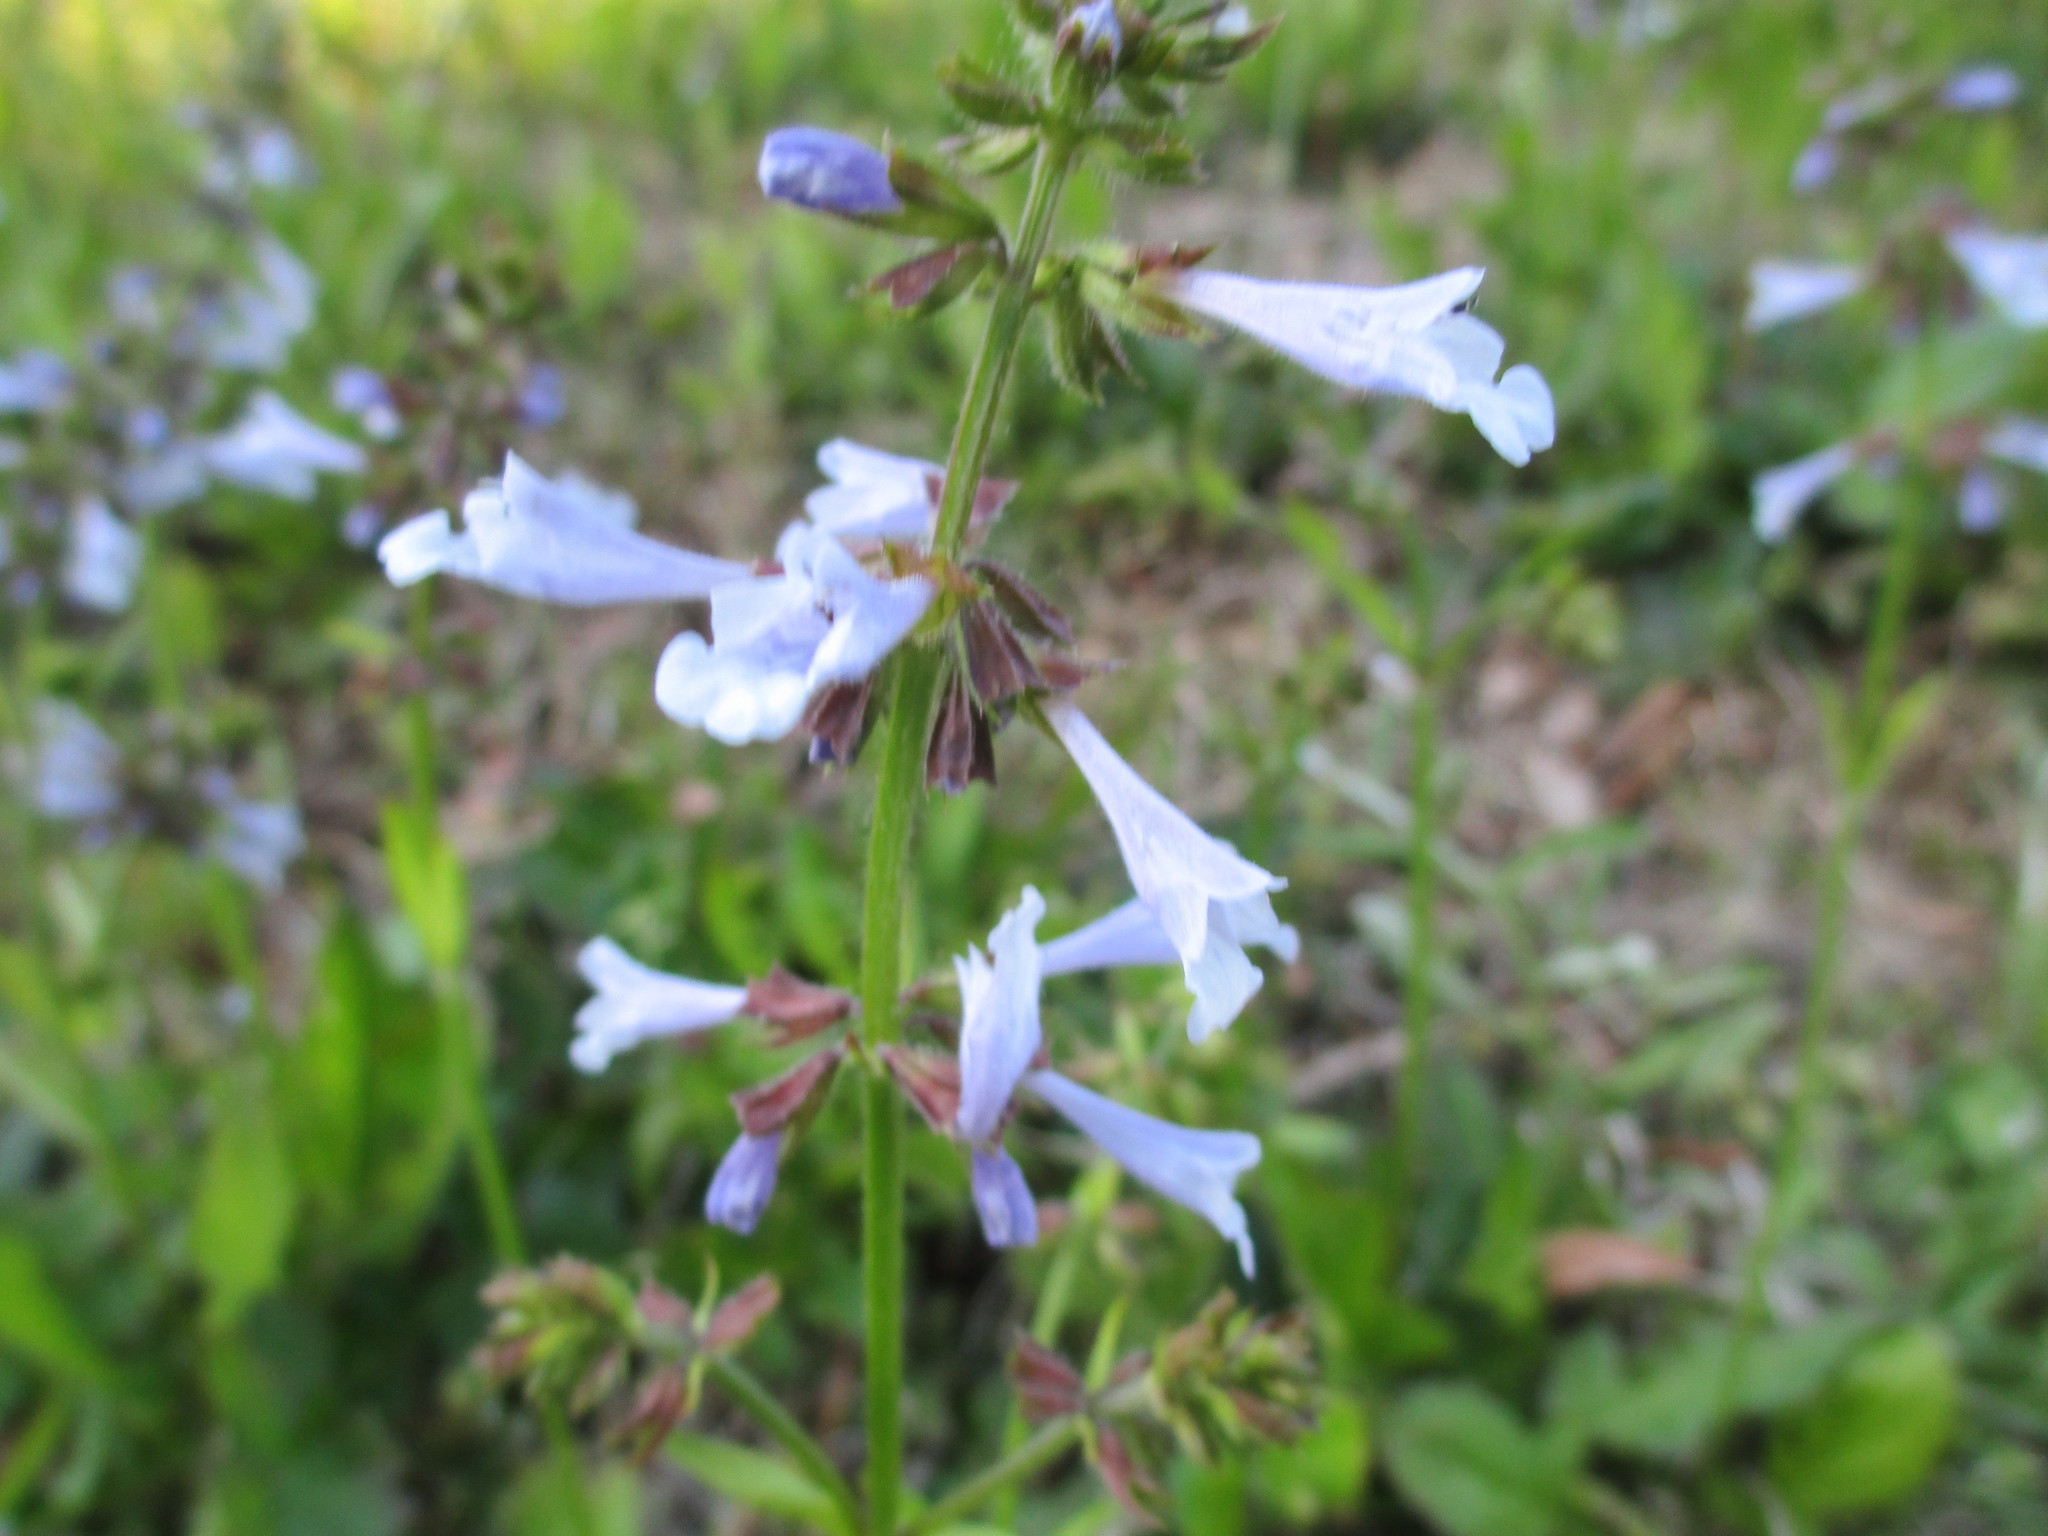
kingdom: Plantae
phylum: Tracheophyta
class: Magnoliopsida
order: Lamiales
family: Lamiaceae
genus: Salvia
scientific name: Salvia lyrata
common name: Cancerweed
